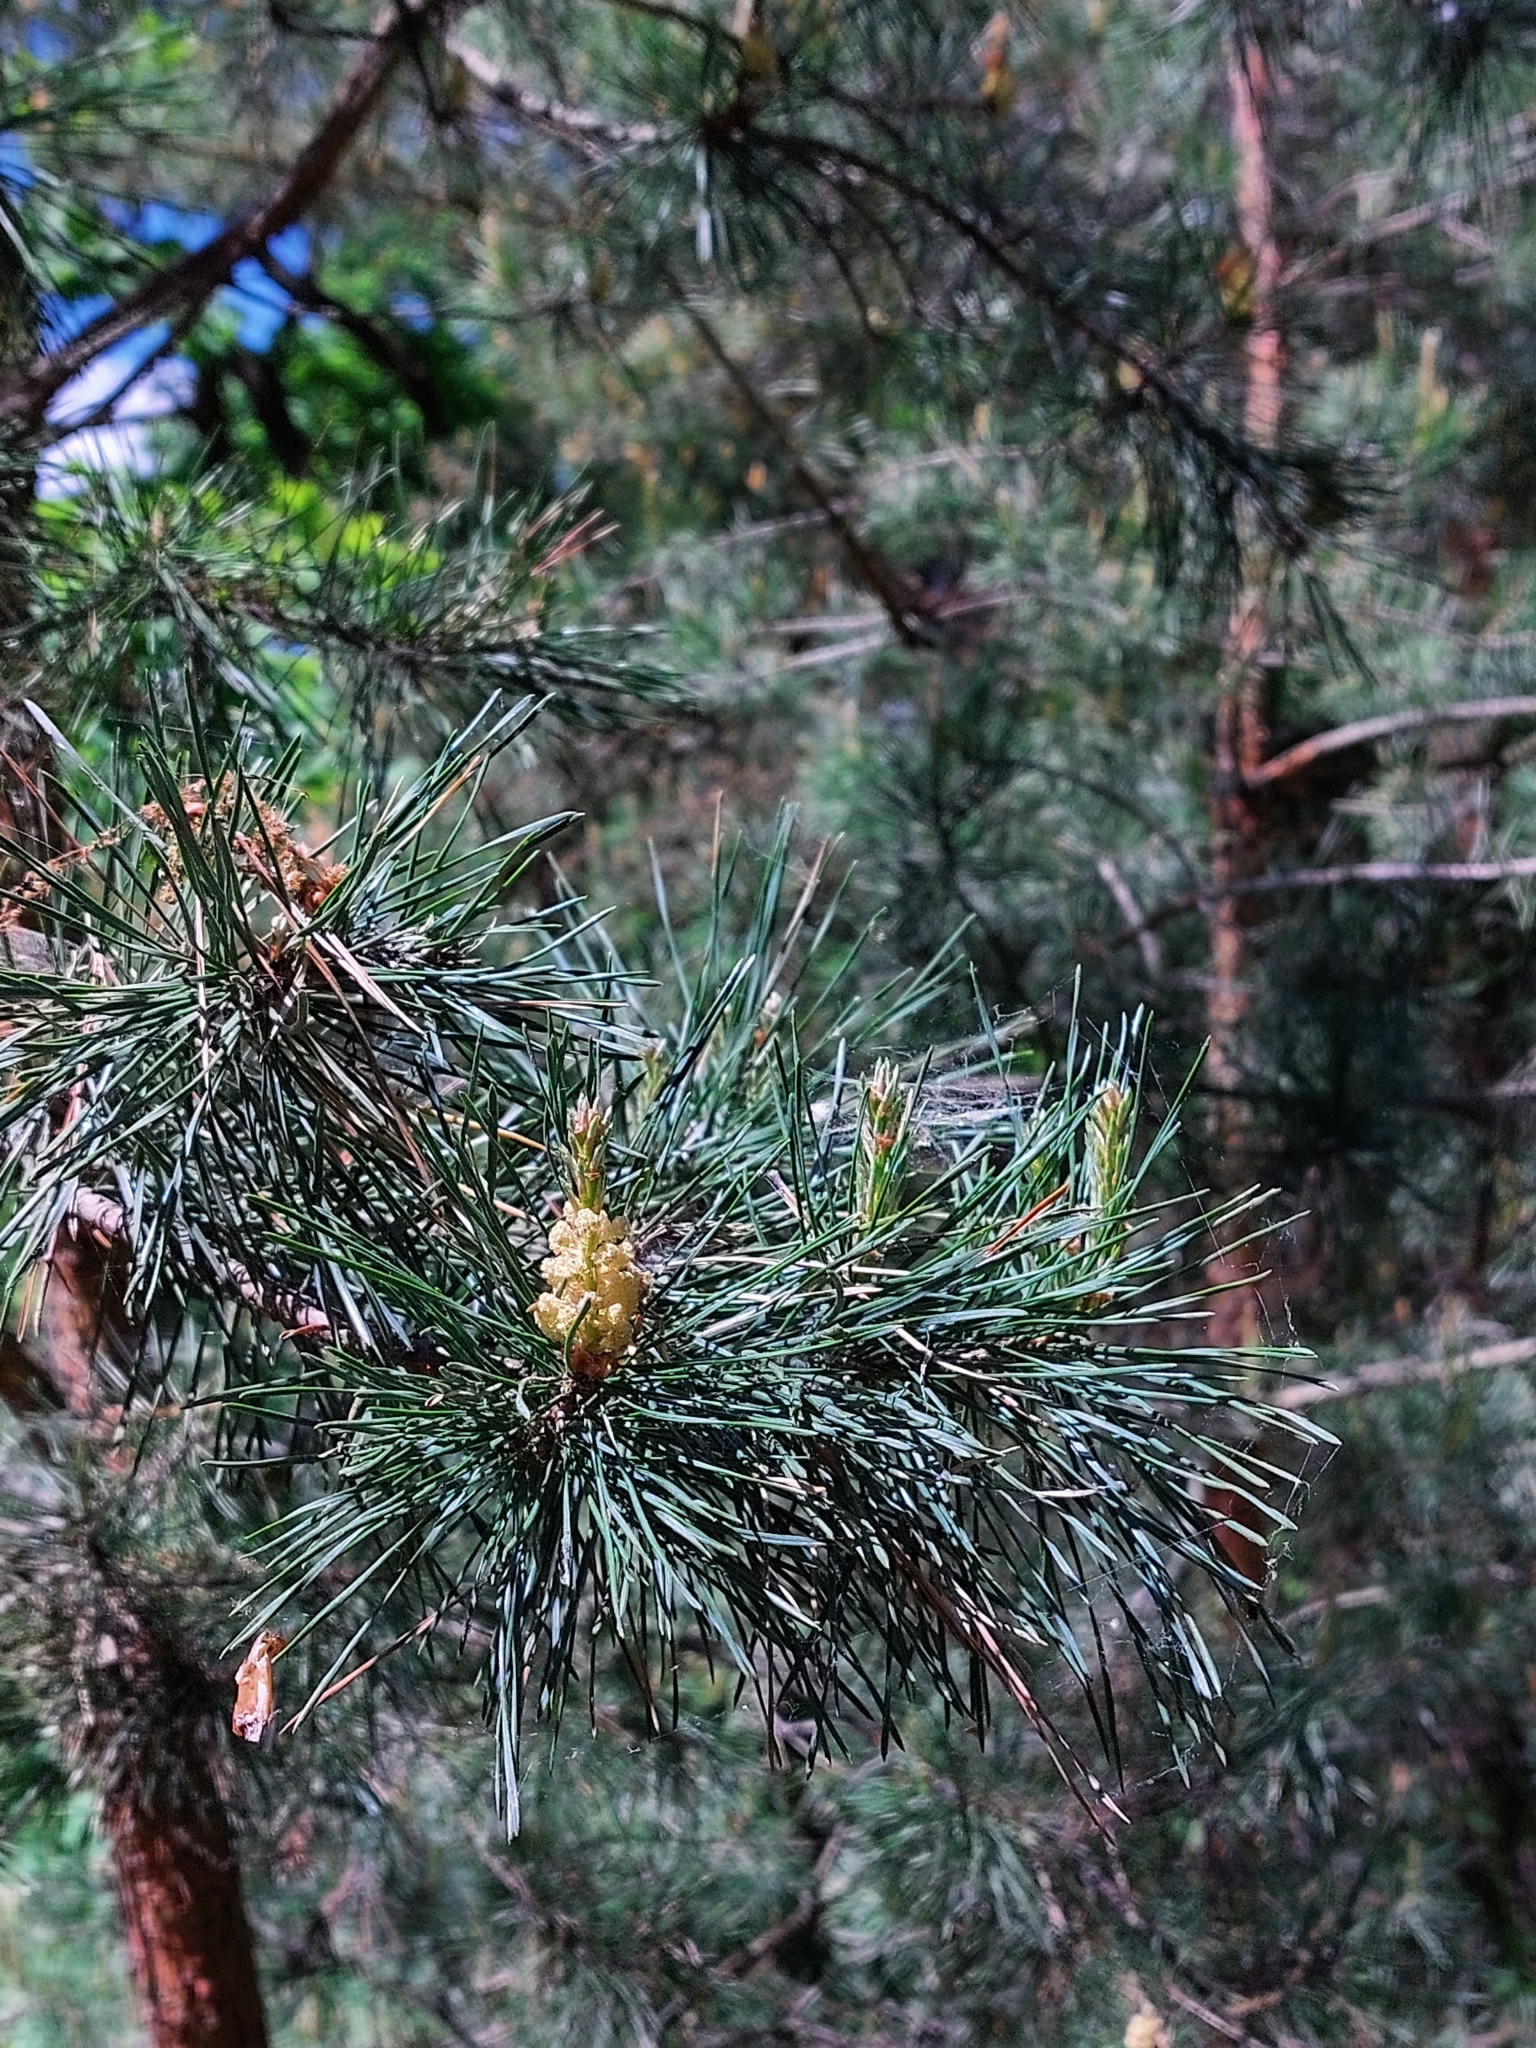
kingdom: Plantae
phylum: Tracheophyta
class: Pinopsida
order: Pinales
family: Pinaceae
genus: Pinus
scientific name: Pinus sylvestris
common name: Scots pine
